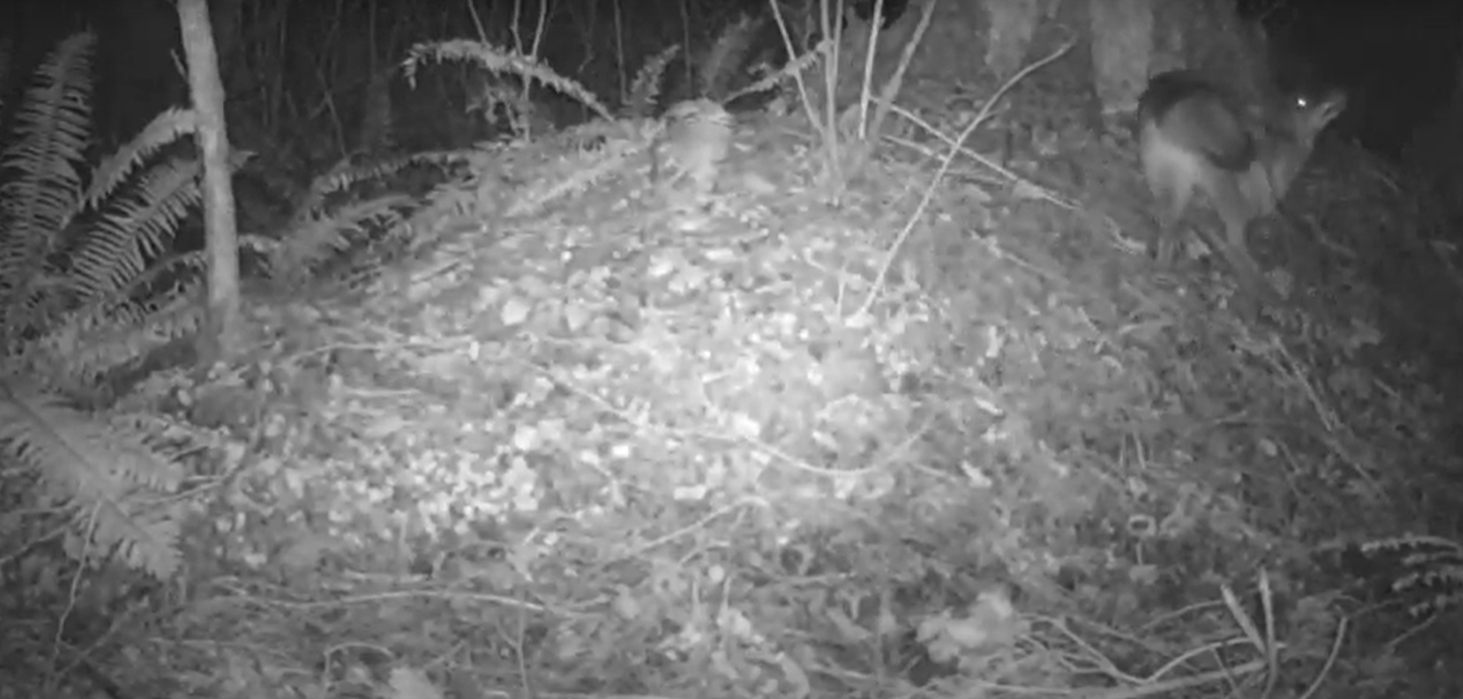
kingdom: Animalia
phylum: Chordata
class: Mammalia
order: Carnivora
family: Canidae
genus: Canis
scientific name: Canis latrans
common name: Coyote
